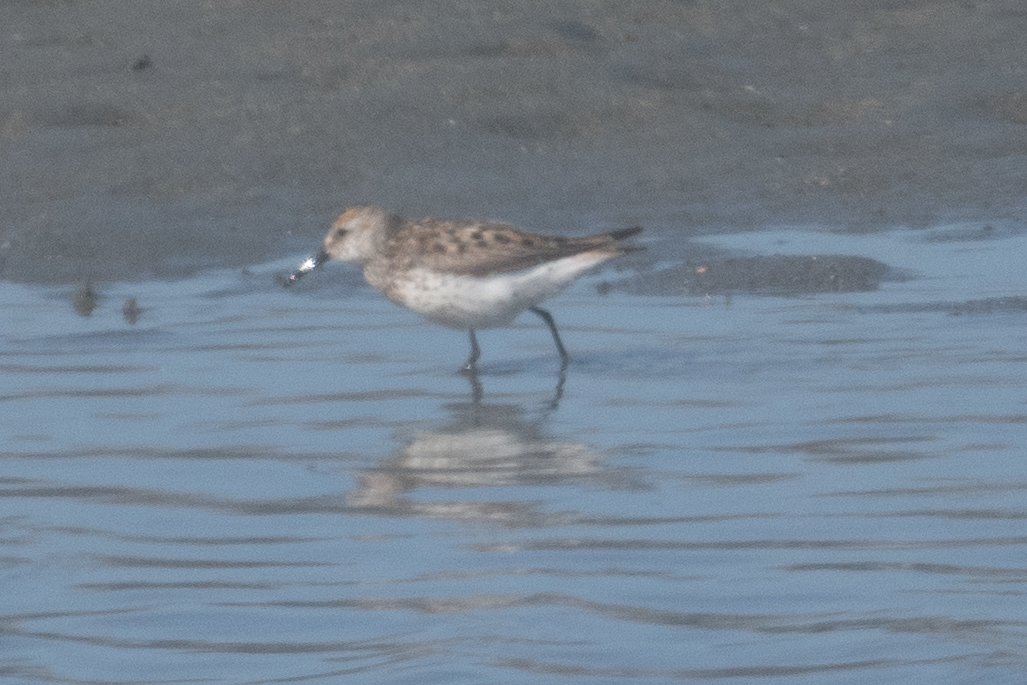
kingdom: Animalia
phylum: Chordata
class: Aves
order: Charadriiformes
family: Scolopacidae
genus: Calidris
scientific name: Calidris mauri
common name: Western sandpiper
